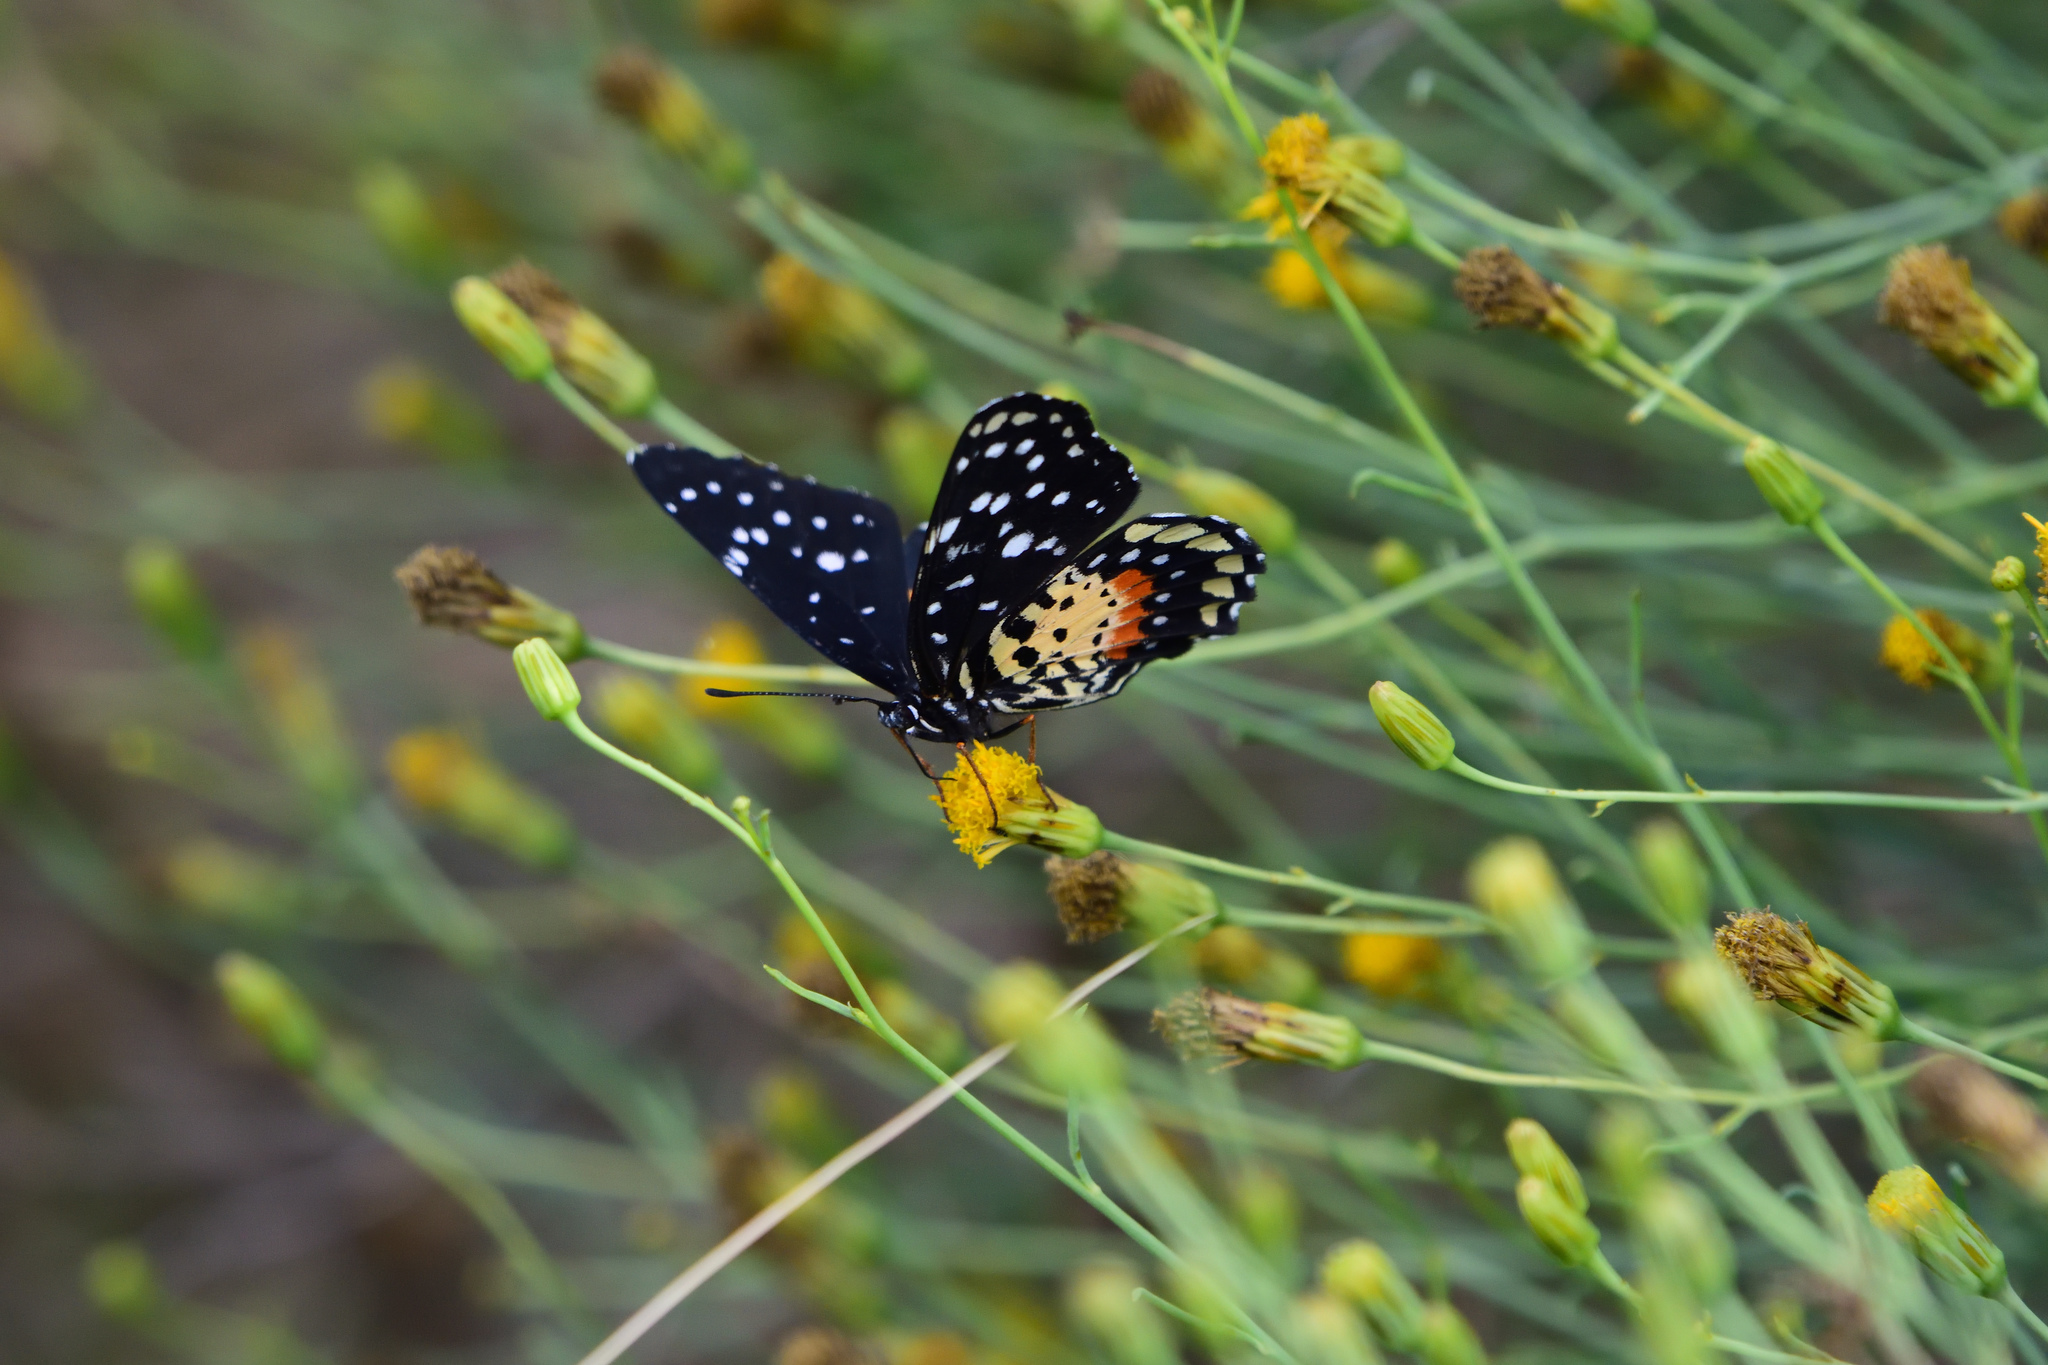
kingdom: Animalia
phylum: Arthropoda
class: Insecta
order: Lepidoptera
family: Nymphalidae
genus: Chlosyne
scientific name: Chlosyne janais
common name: Crimson patch
